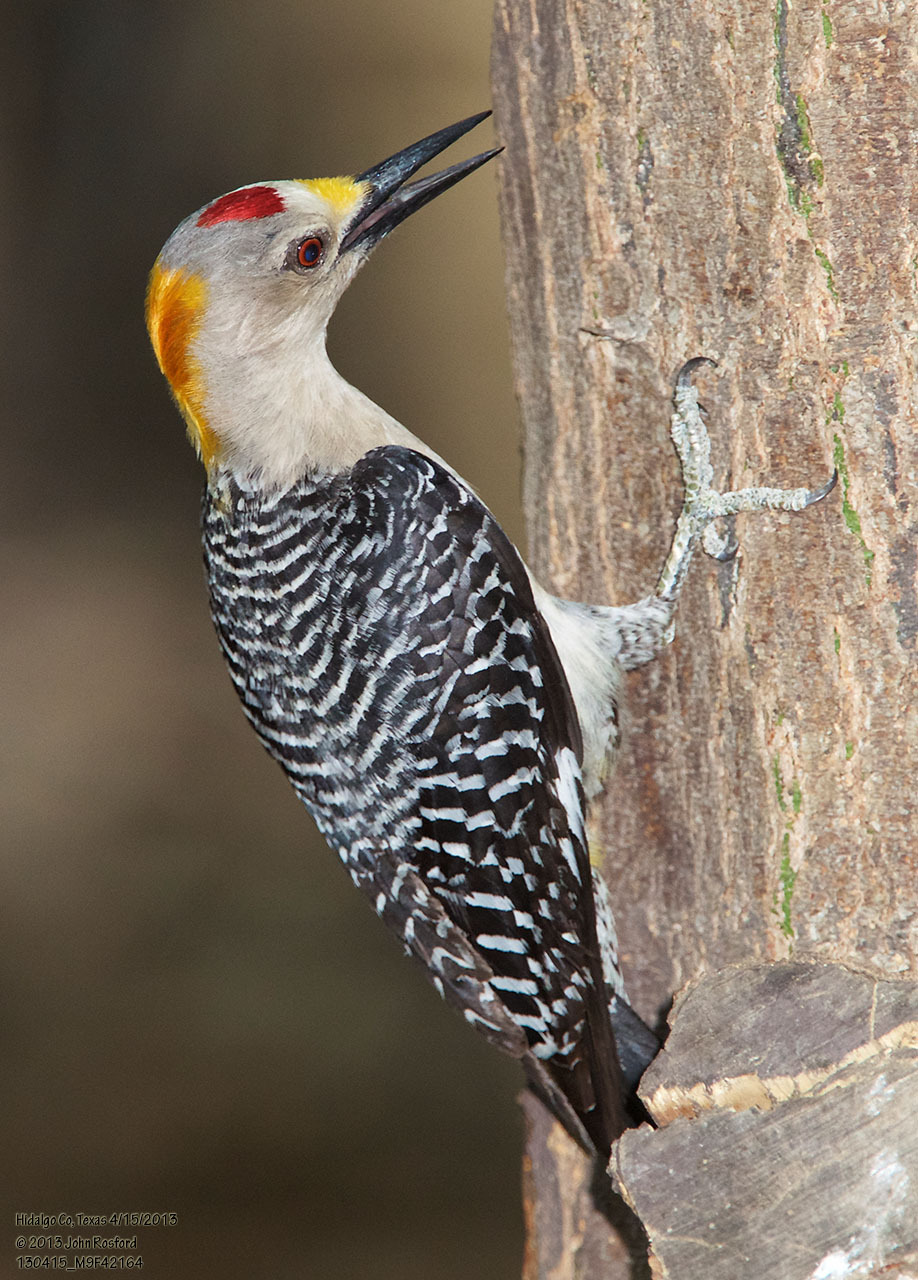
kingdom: Animalia
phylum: Chordata
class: Aves
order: Piciformes
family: Picidae
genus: Melanerpes
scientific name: Melanerpes aurifrons
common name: Golden-fronted woodpecker
